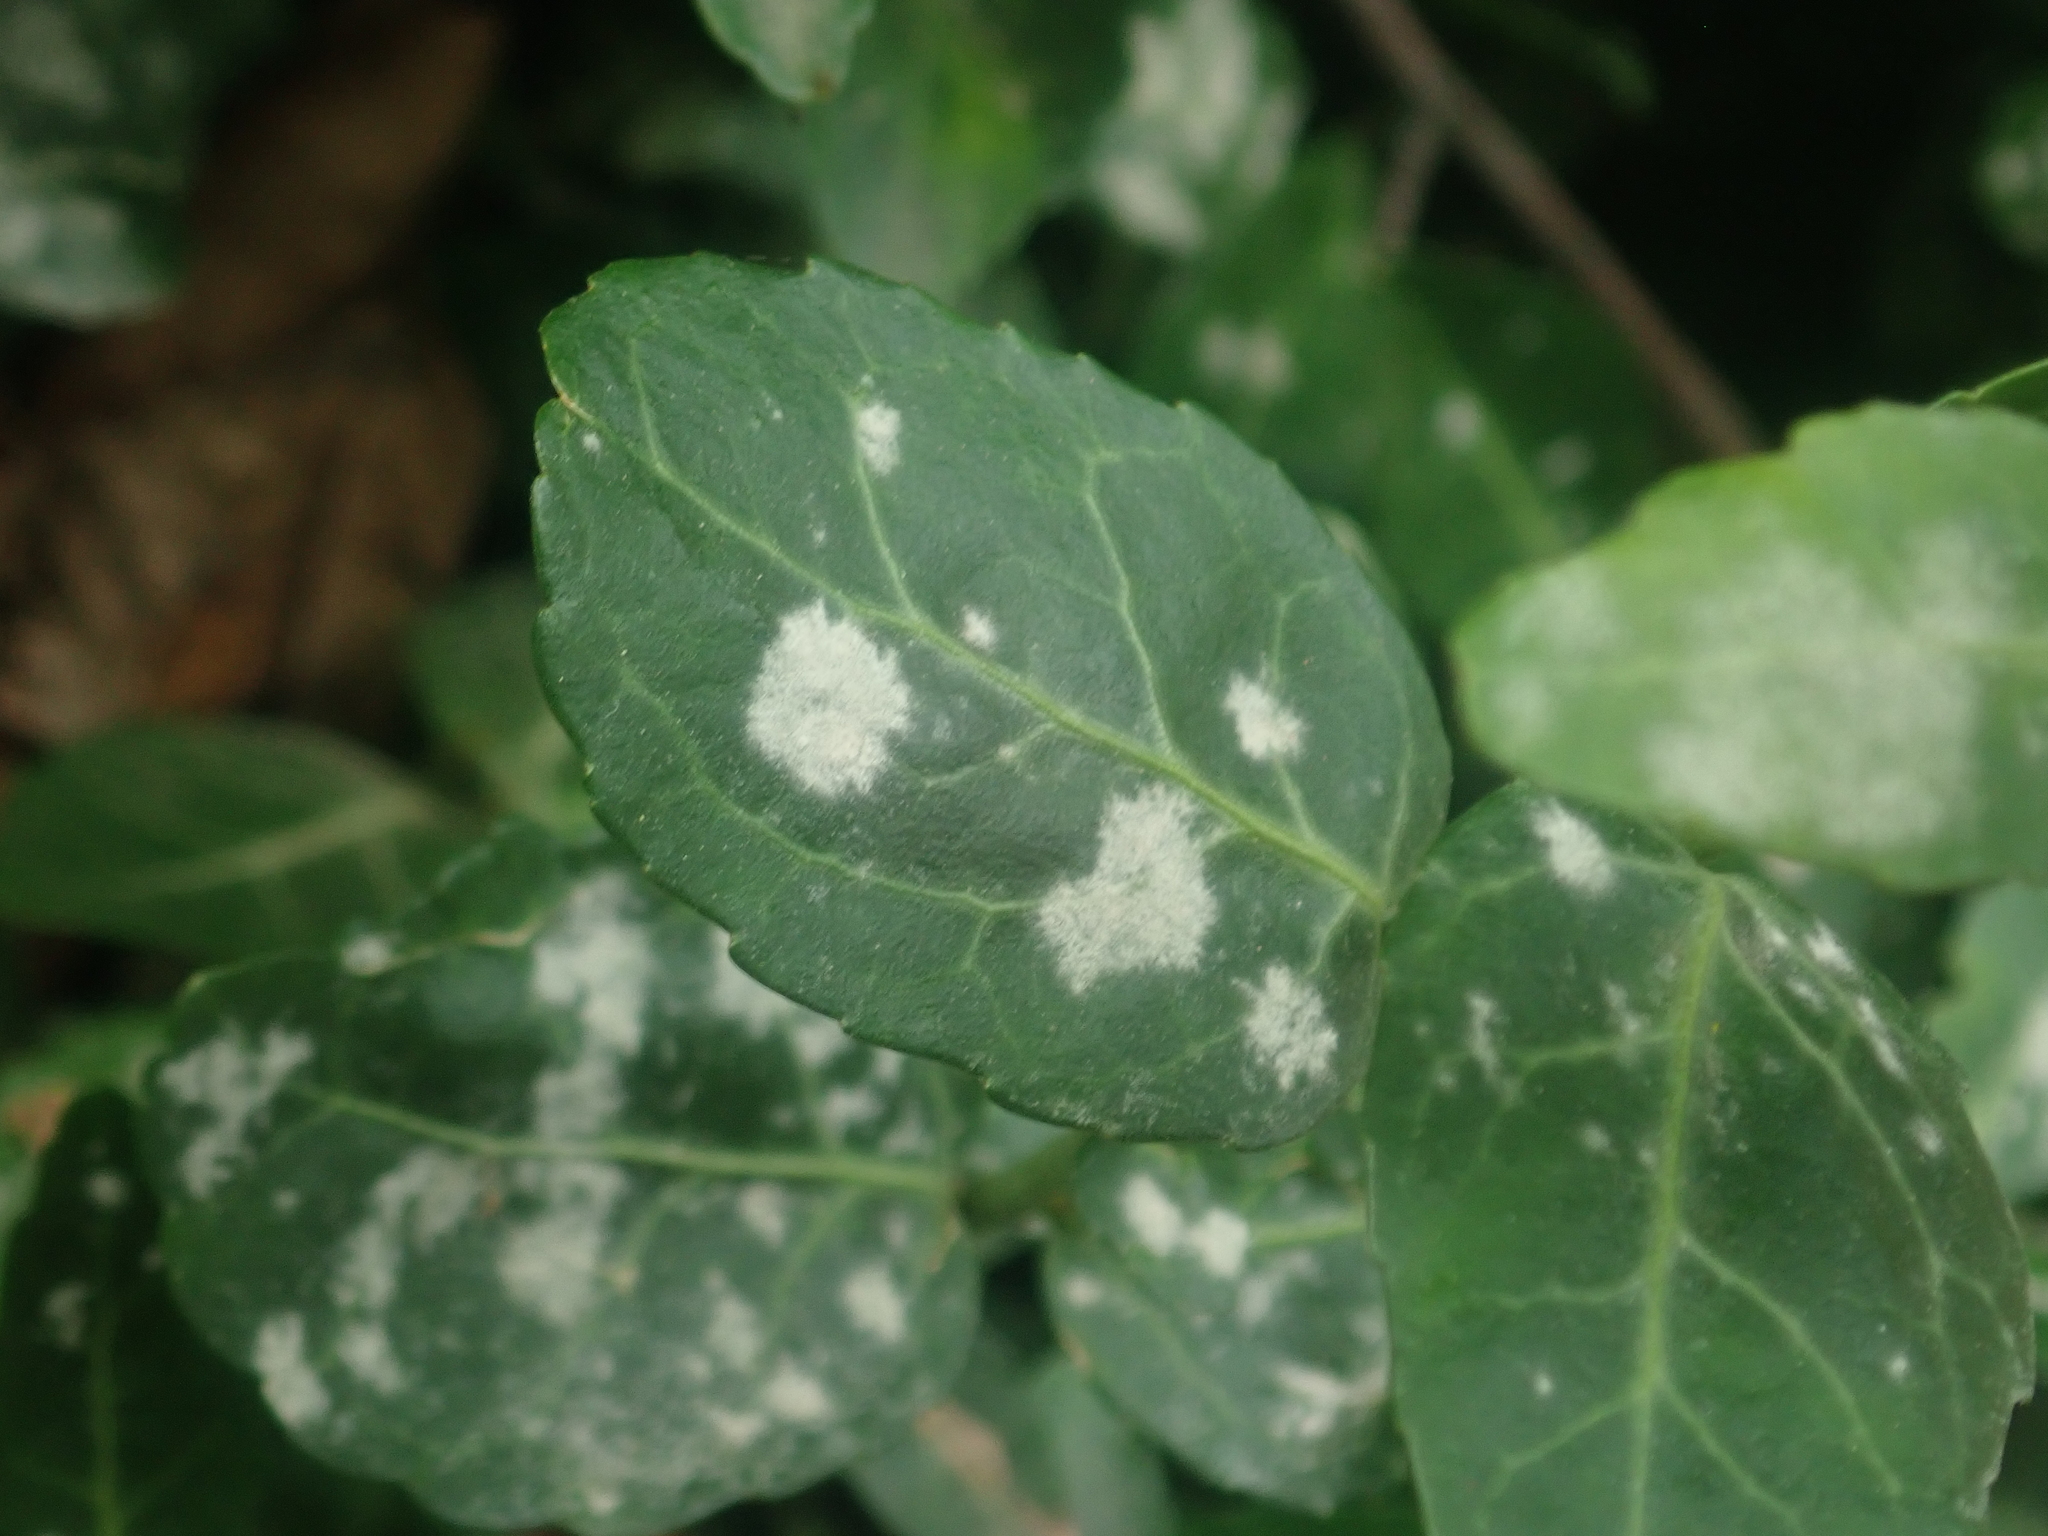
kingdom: Fungi
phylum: Ascomycota
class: Leotiomycetes
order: Helotiales
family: Erysiphaceae
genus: Erysiphe
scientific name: Erysiphe euonymicola
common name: Spindletree mildew
